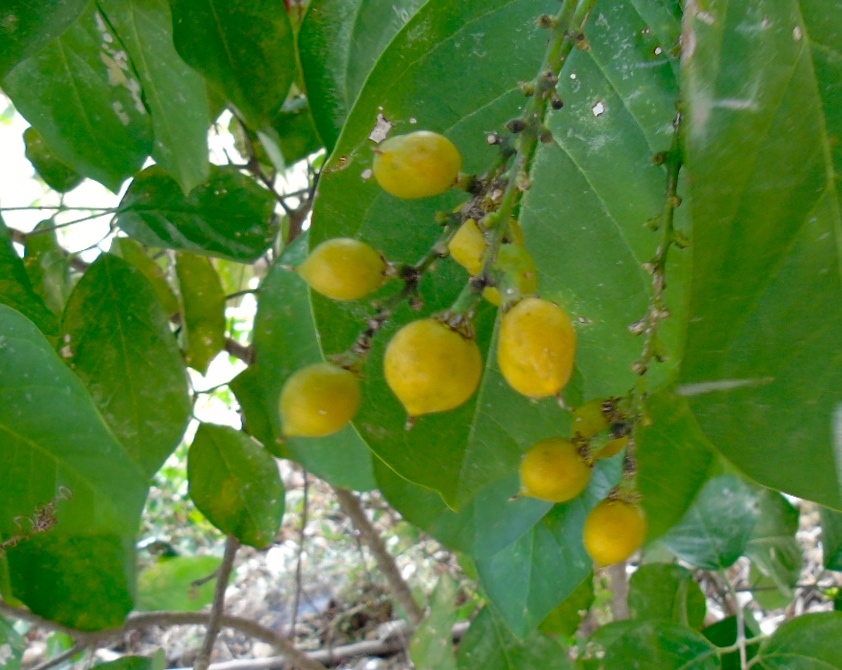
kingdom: Plantae
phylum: Tracheophyta
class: Magnoliopsida
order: Malpighiales
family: Malpighiaceae
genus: Bunchosia
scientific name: Bunchosia palmeri
